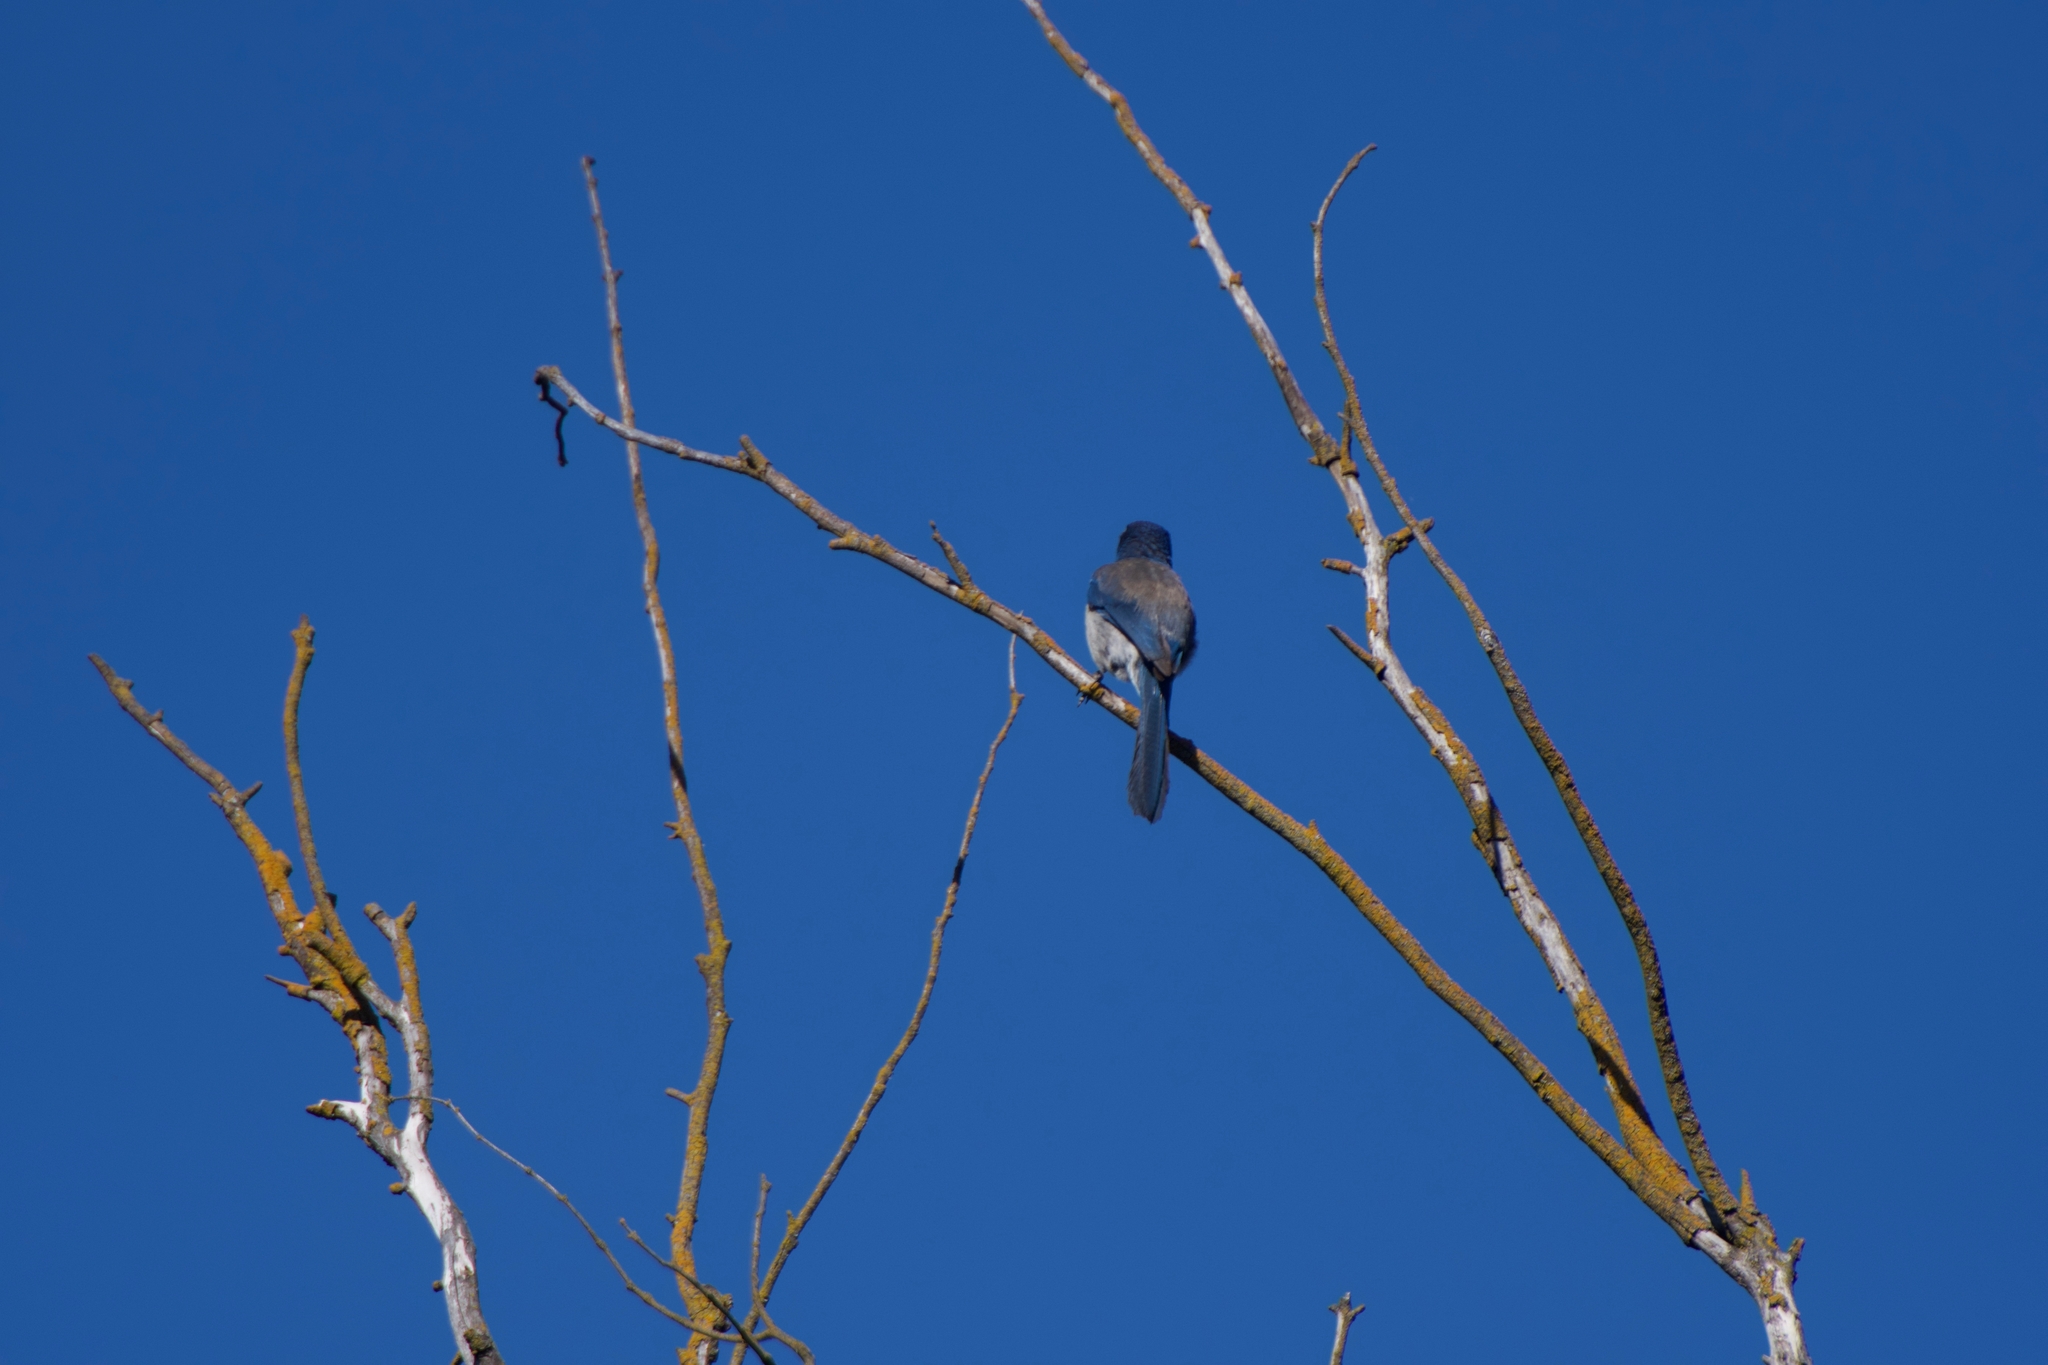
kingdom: Animalia
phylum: Chordata
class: Aves
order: Passeriformes
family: Corvidae
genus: Aphelocoma
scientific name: Aphelocoma californica
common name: California scrub-jay
